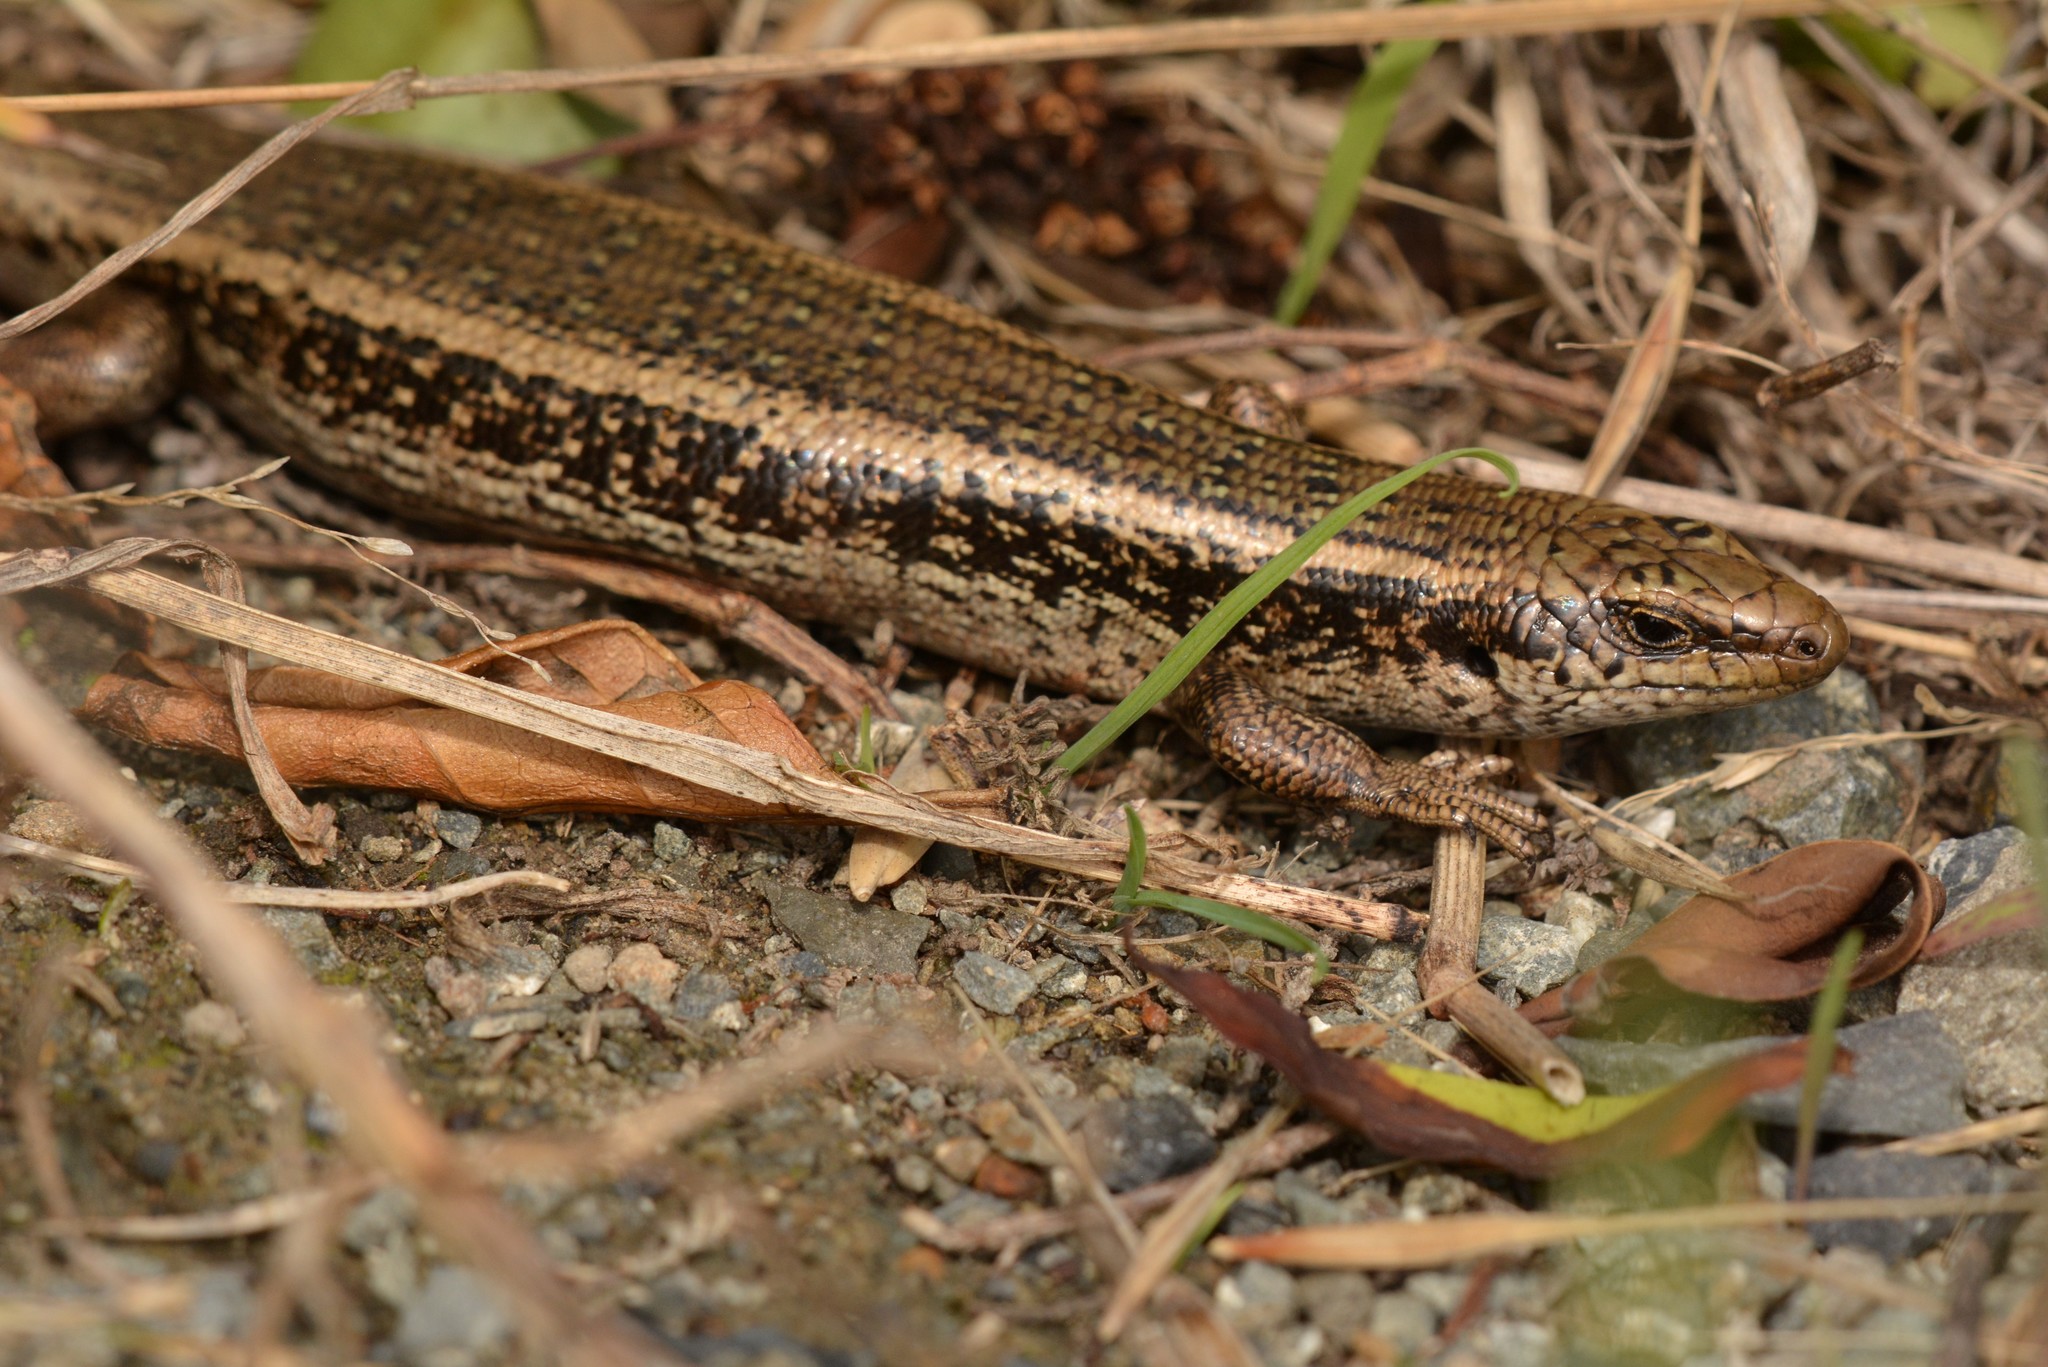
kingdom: Animalia
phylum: Chordata
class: Squamata
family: Scincidae
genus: Oligosoma
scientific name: Oligosoma kokowai
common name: Northern spotted skink
